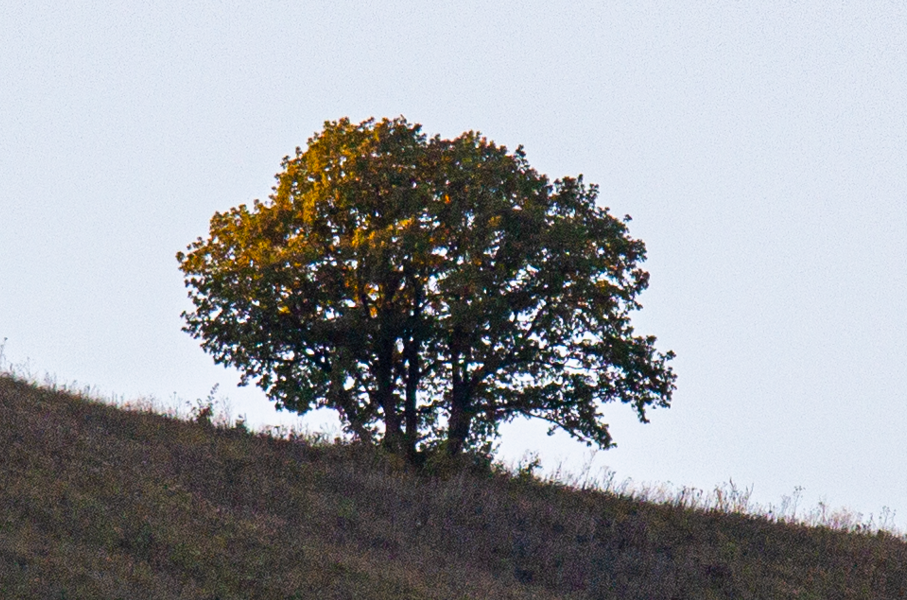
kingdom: Plantae
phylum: Tracheophyta
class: Magnoliopsida
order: Fagales
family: Fagaceae
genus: Quercus
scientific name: Quercus robur
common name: Pedunculate oak
